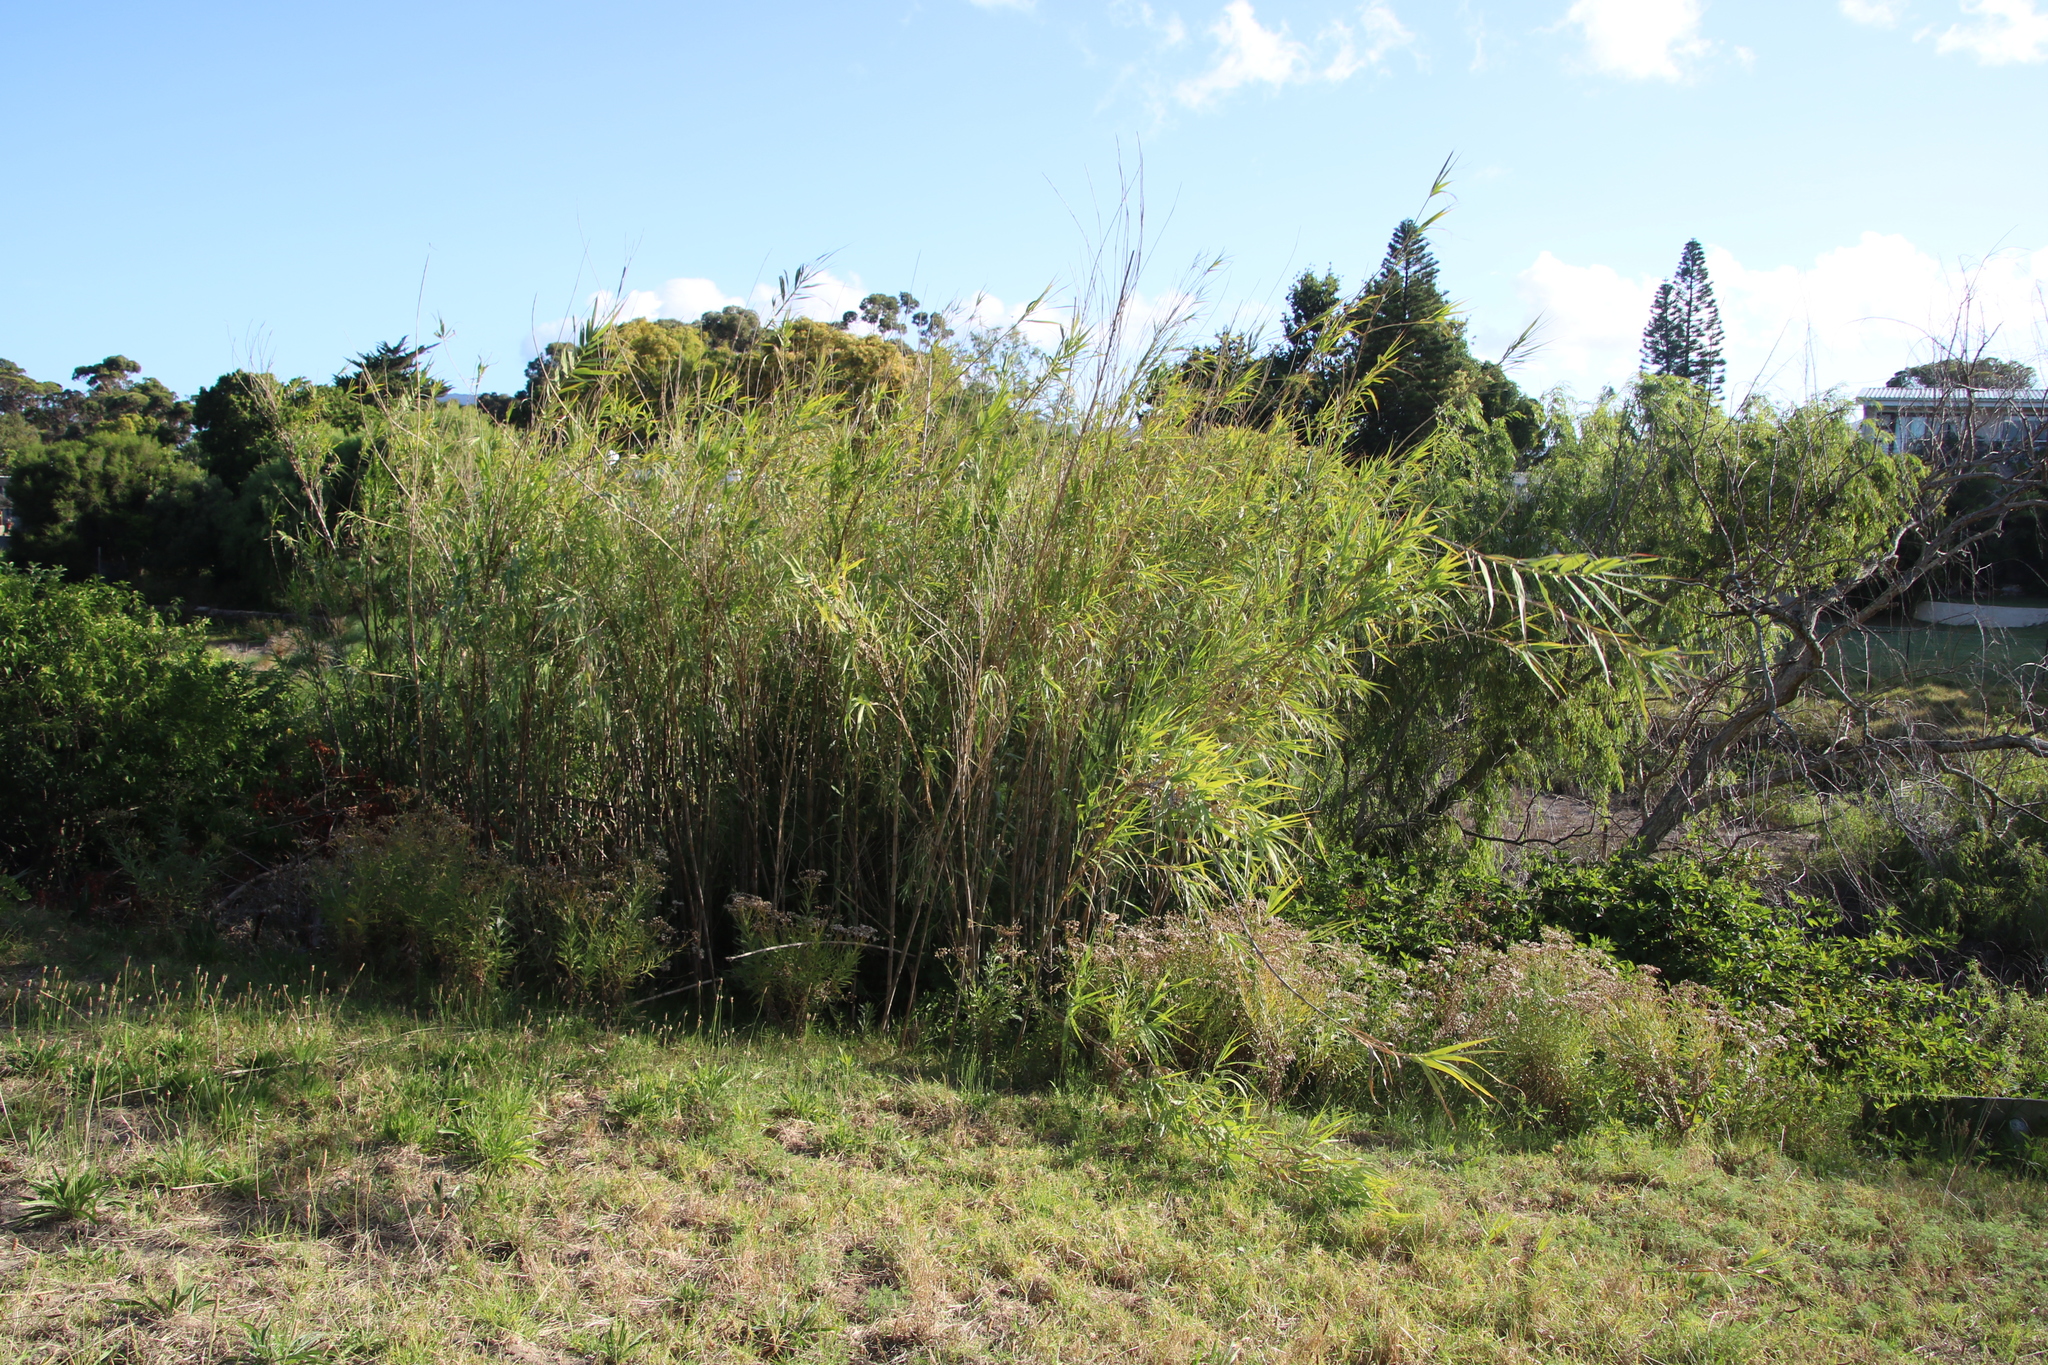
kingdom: Plantae
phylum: Tracheophyta
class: Liliopsida
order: Poales
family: Poaceae
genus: Arundo
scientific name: Arundo donax
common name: Giant reed
